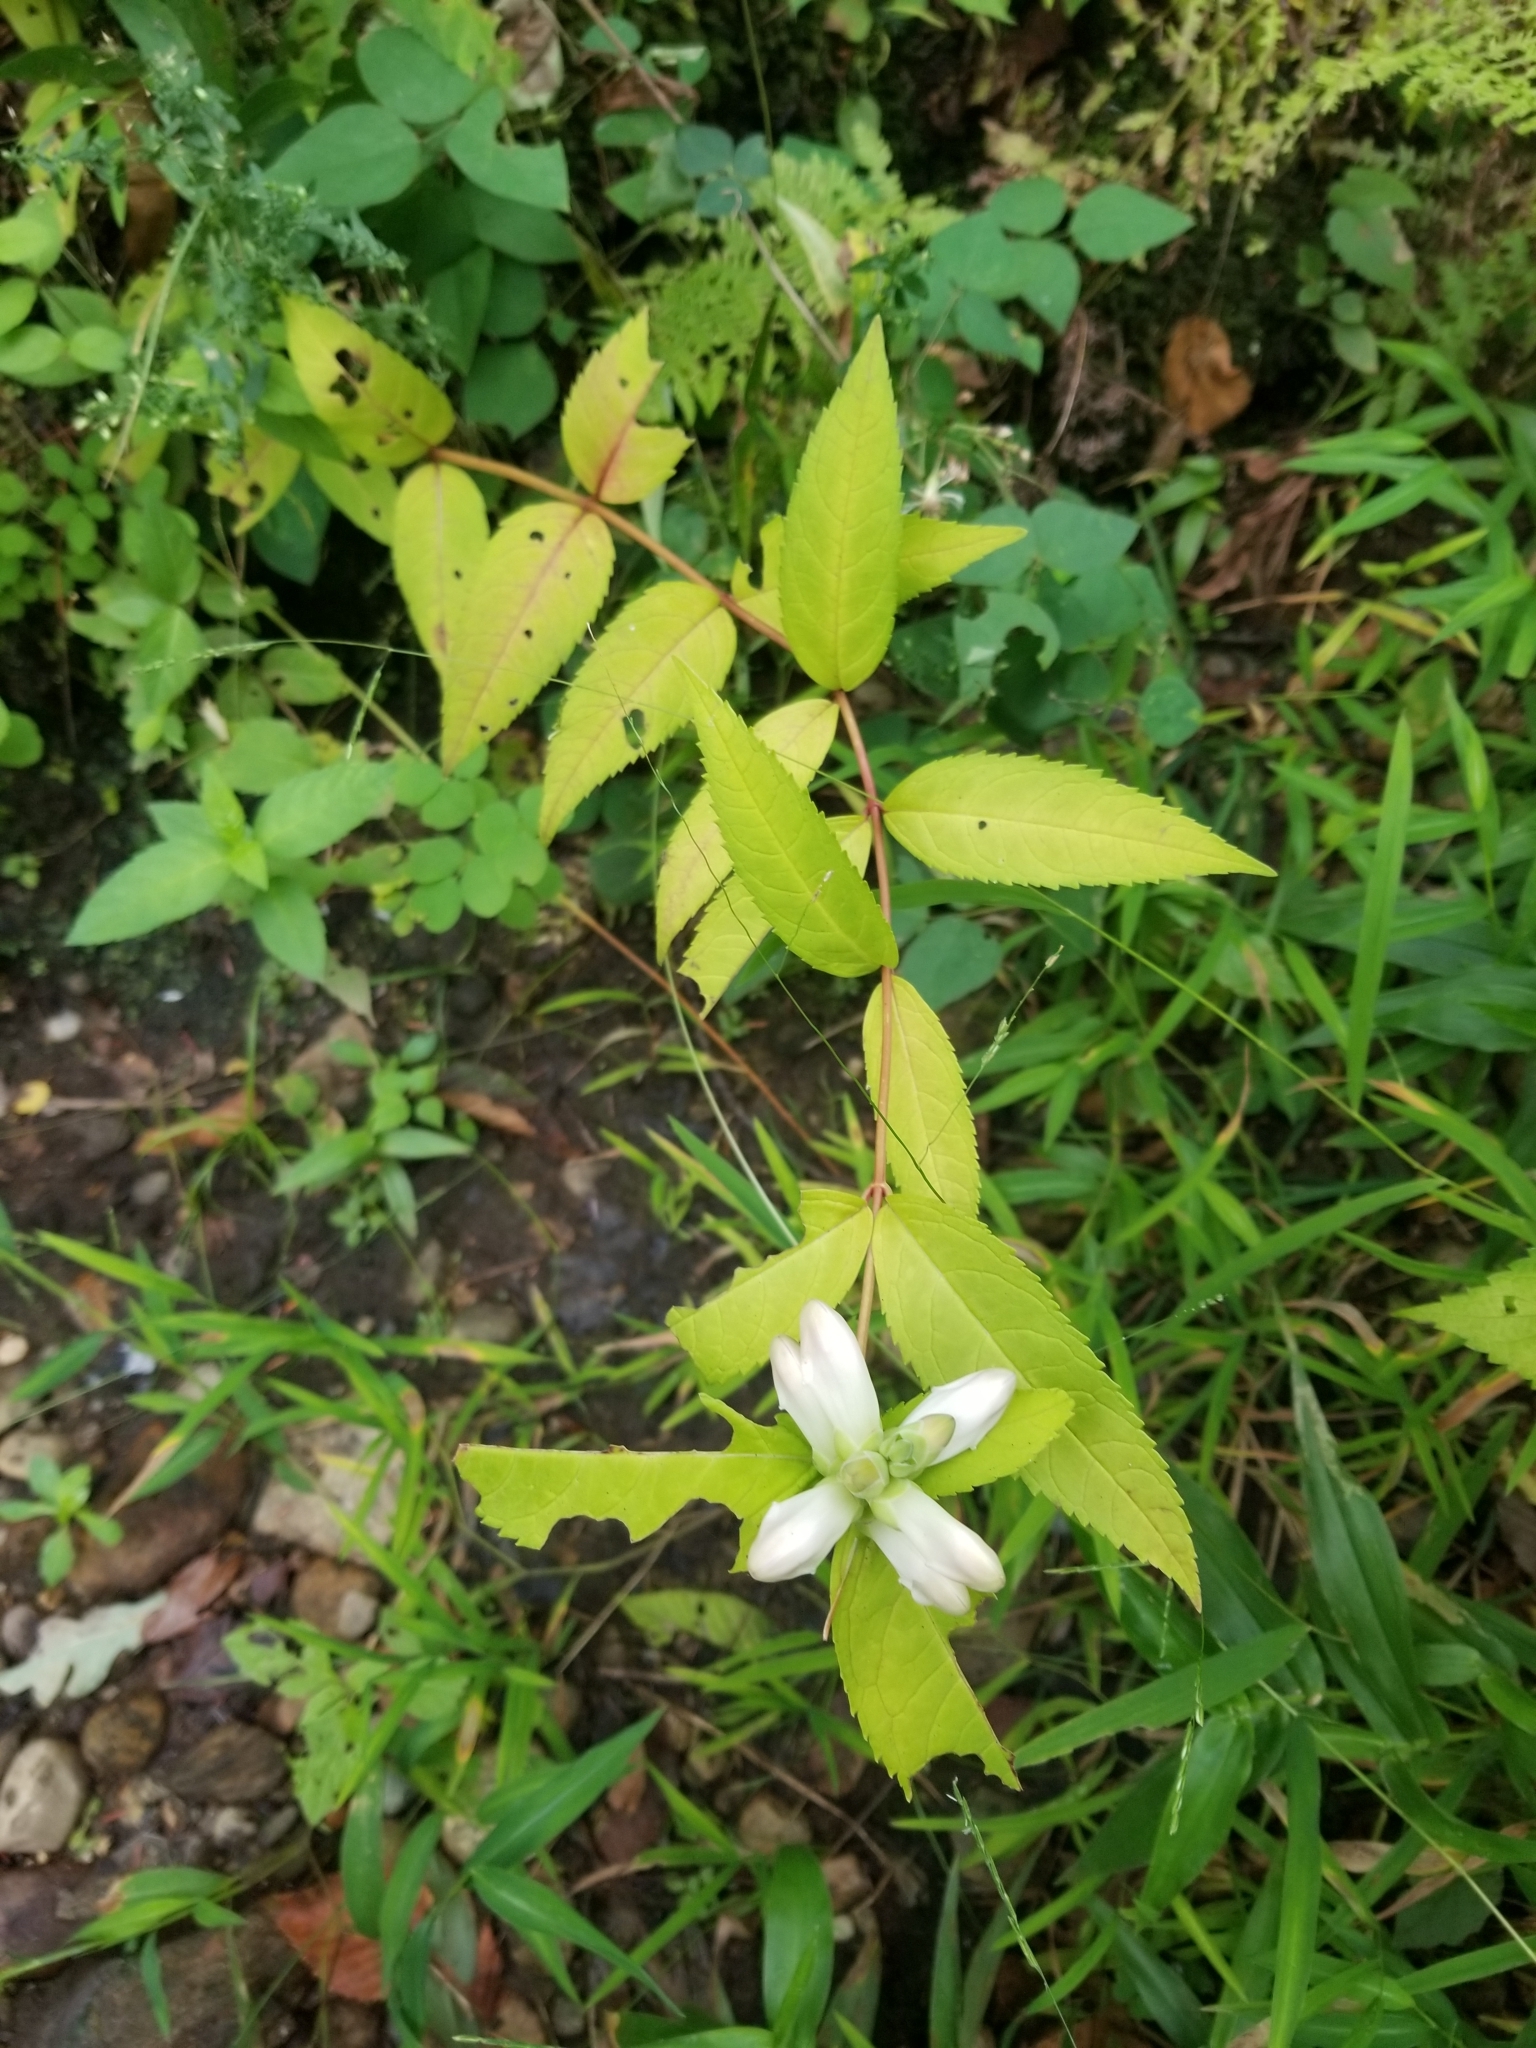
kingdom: Plantae
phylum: Tracheophyta
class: Magnoliopsida
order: Lamiales
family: Plantaginaceae
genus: Chelone
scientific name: Chelone glabra
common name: Snakehead
